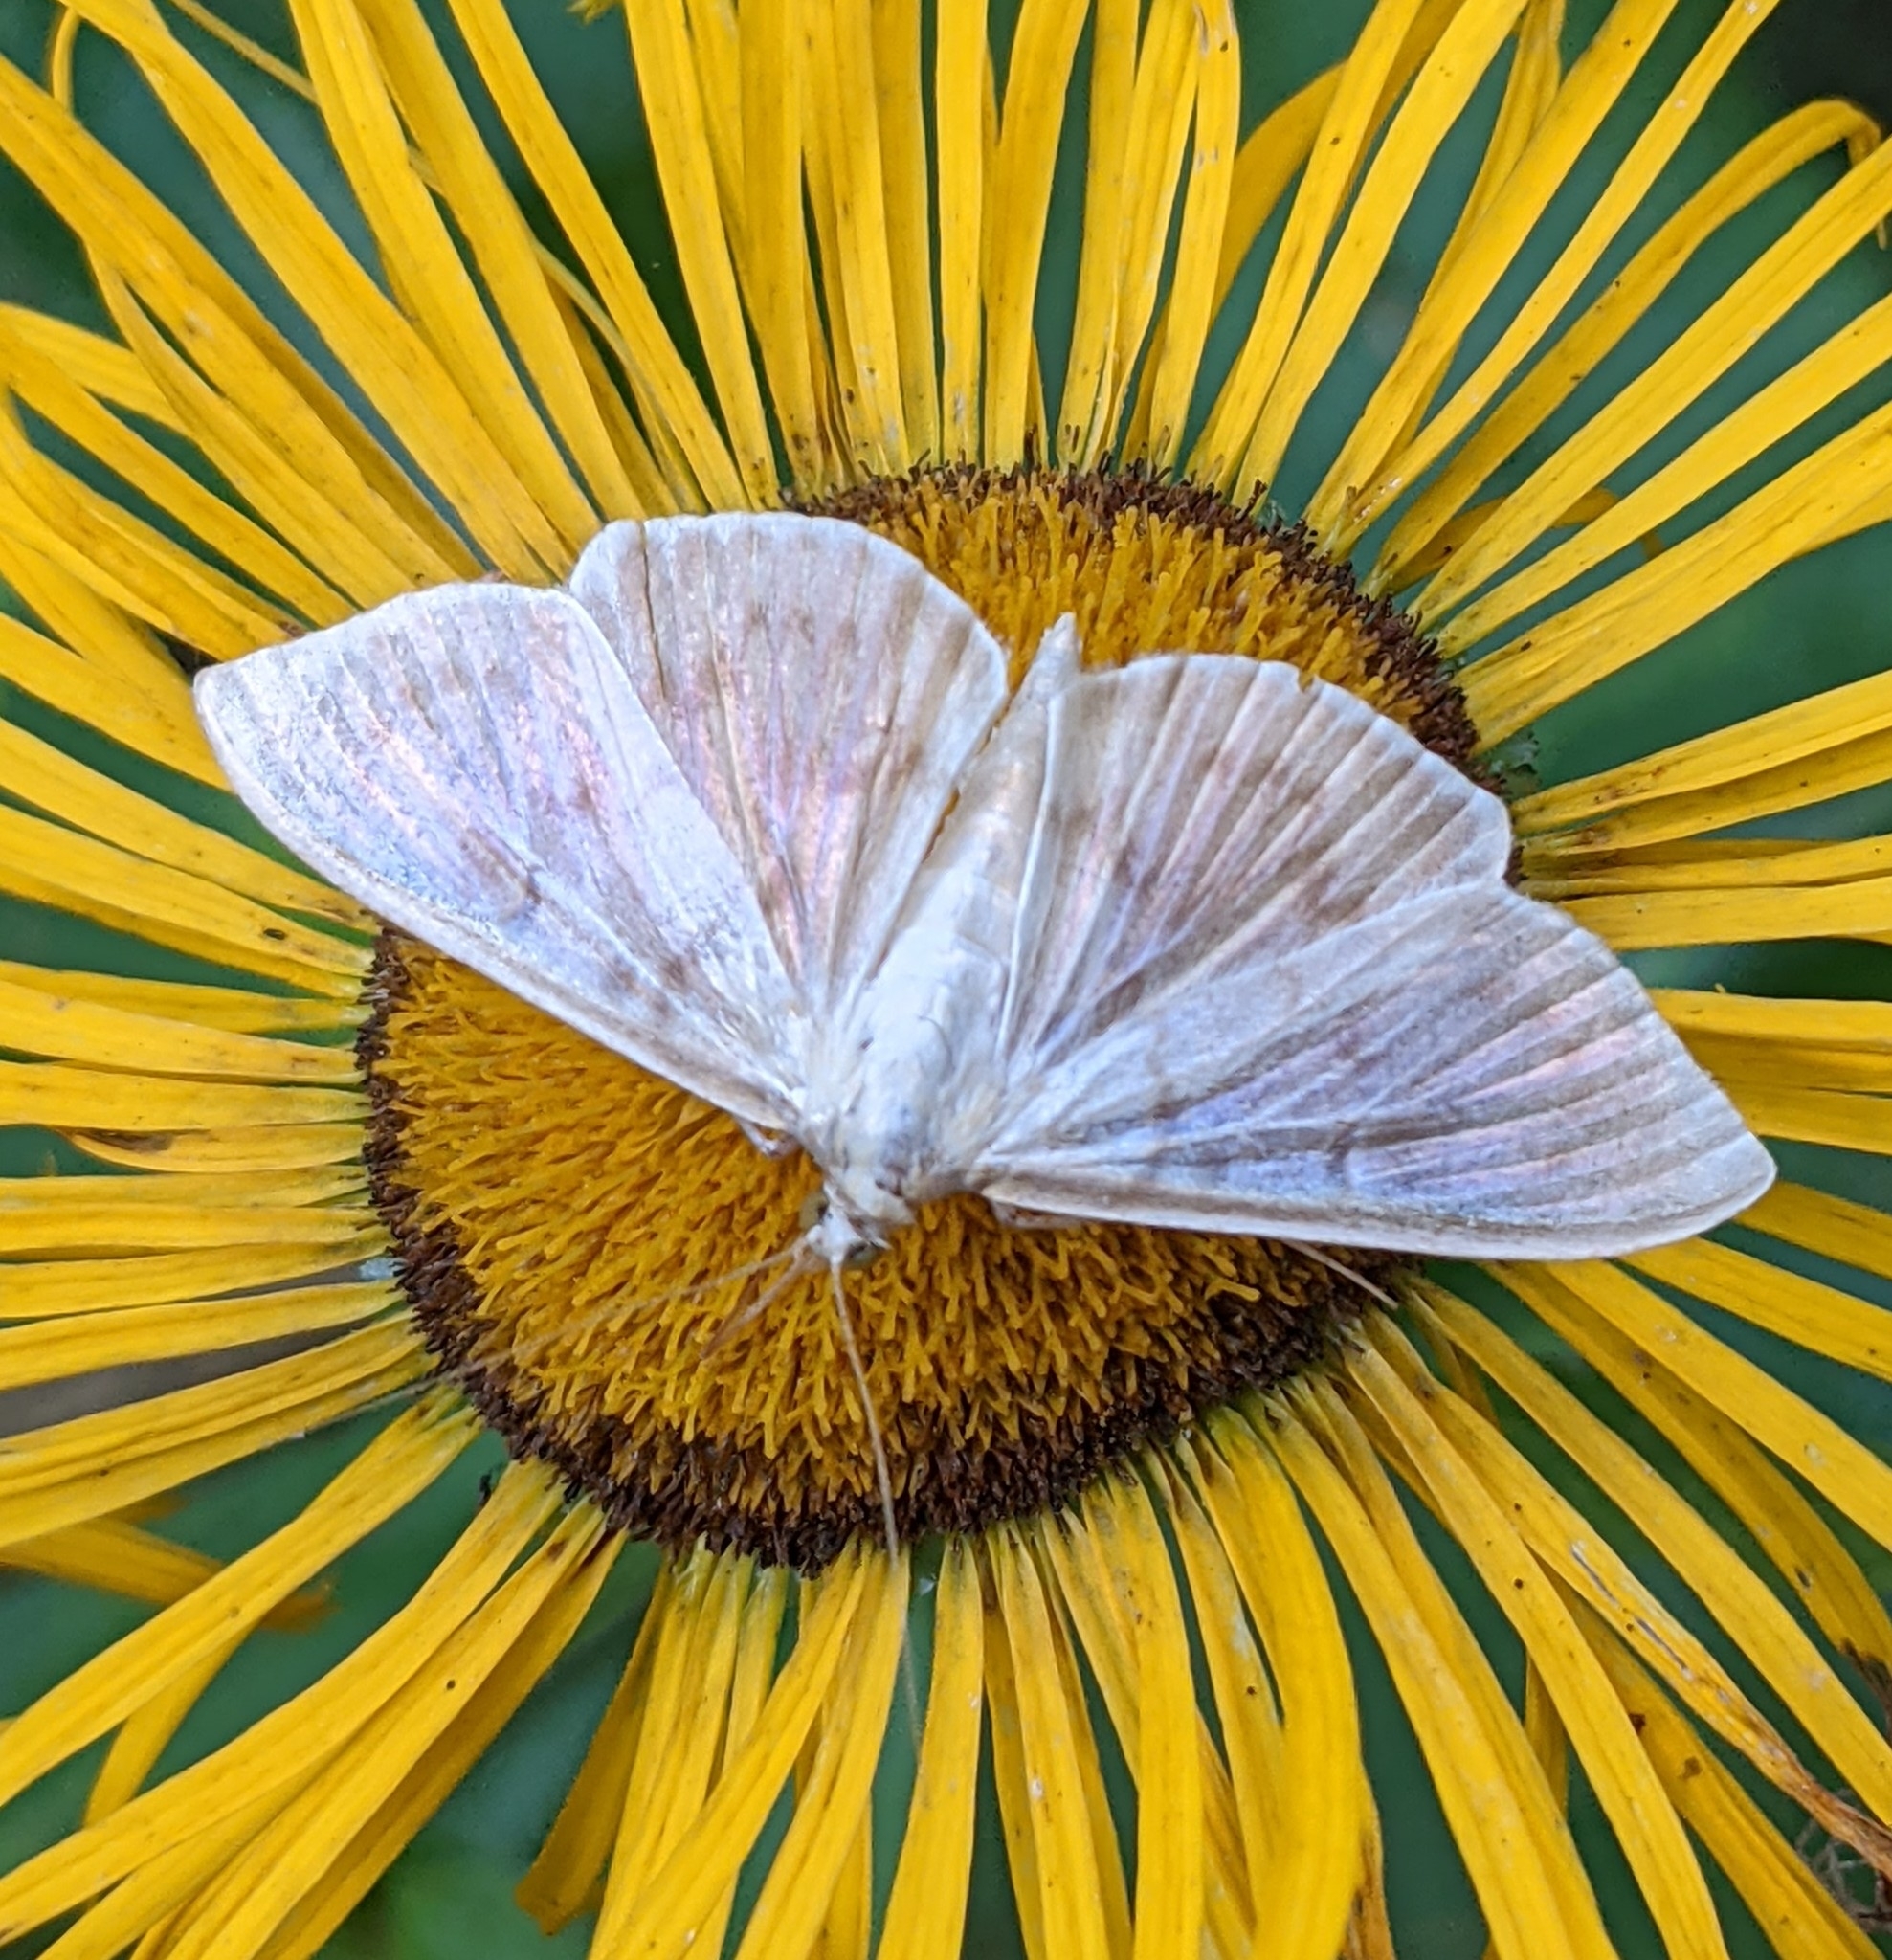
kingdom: Animalia
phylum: Arthropoda
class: Insecta
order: Lepidoptera
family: Crambidae
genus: Patania
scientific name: Patania ruralis
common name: Mother of pearl
